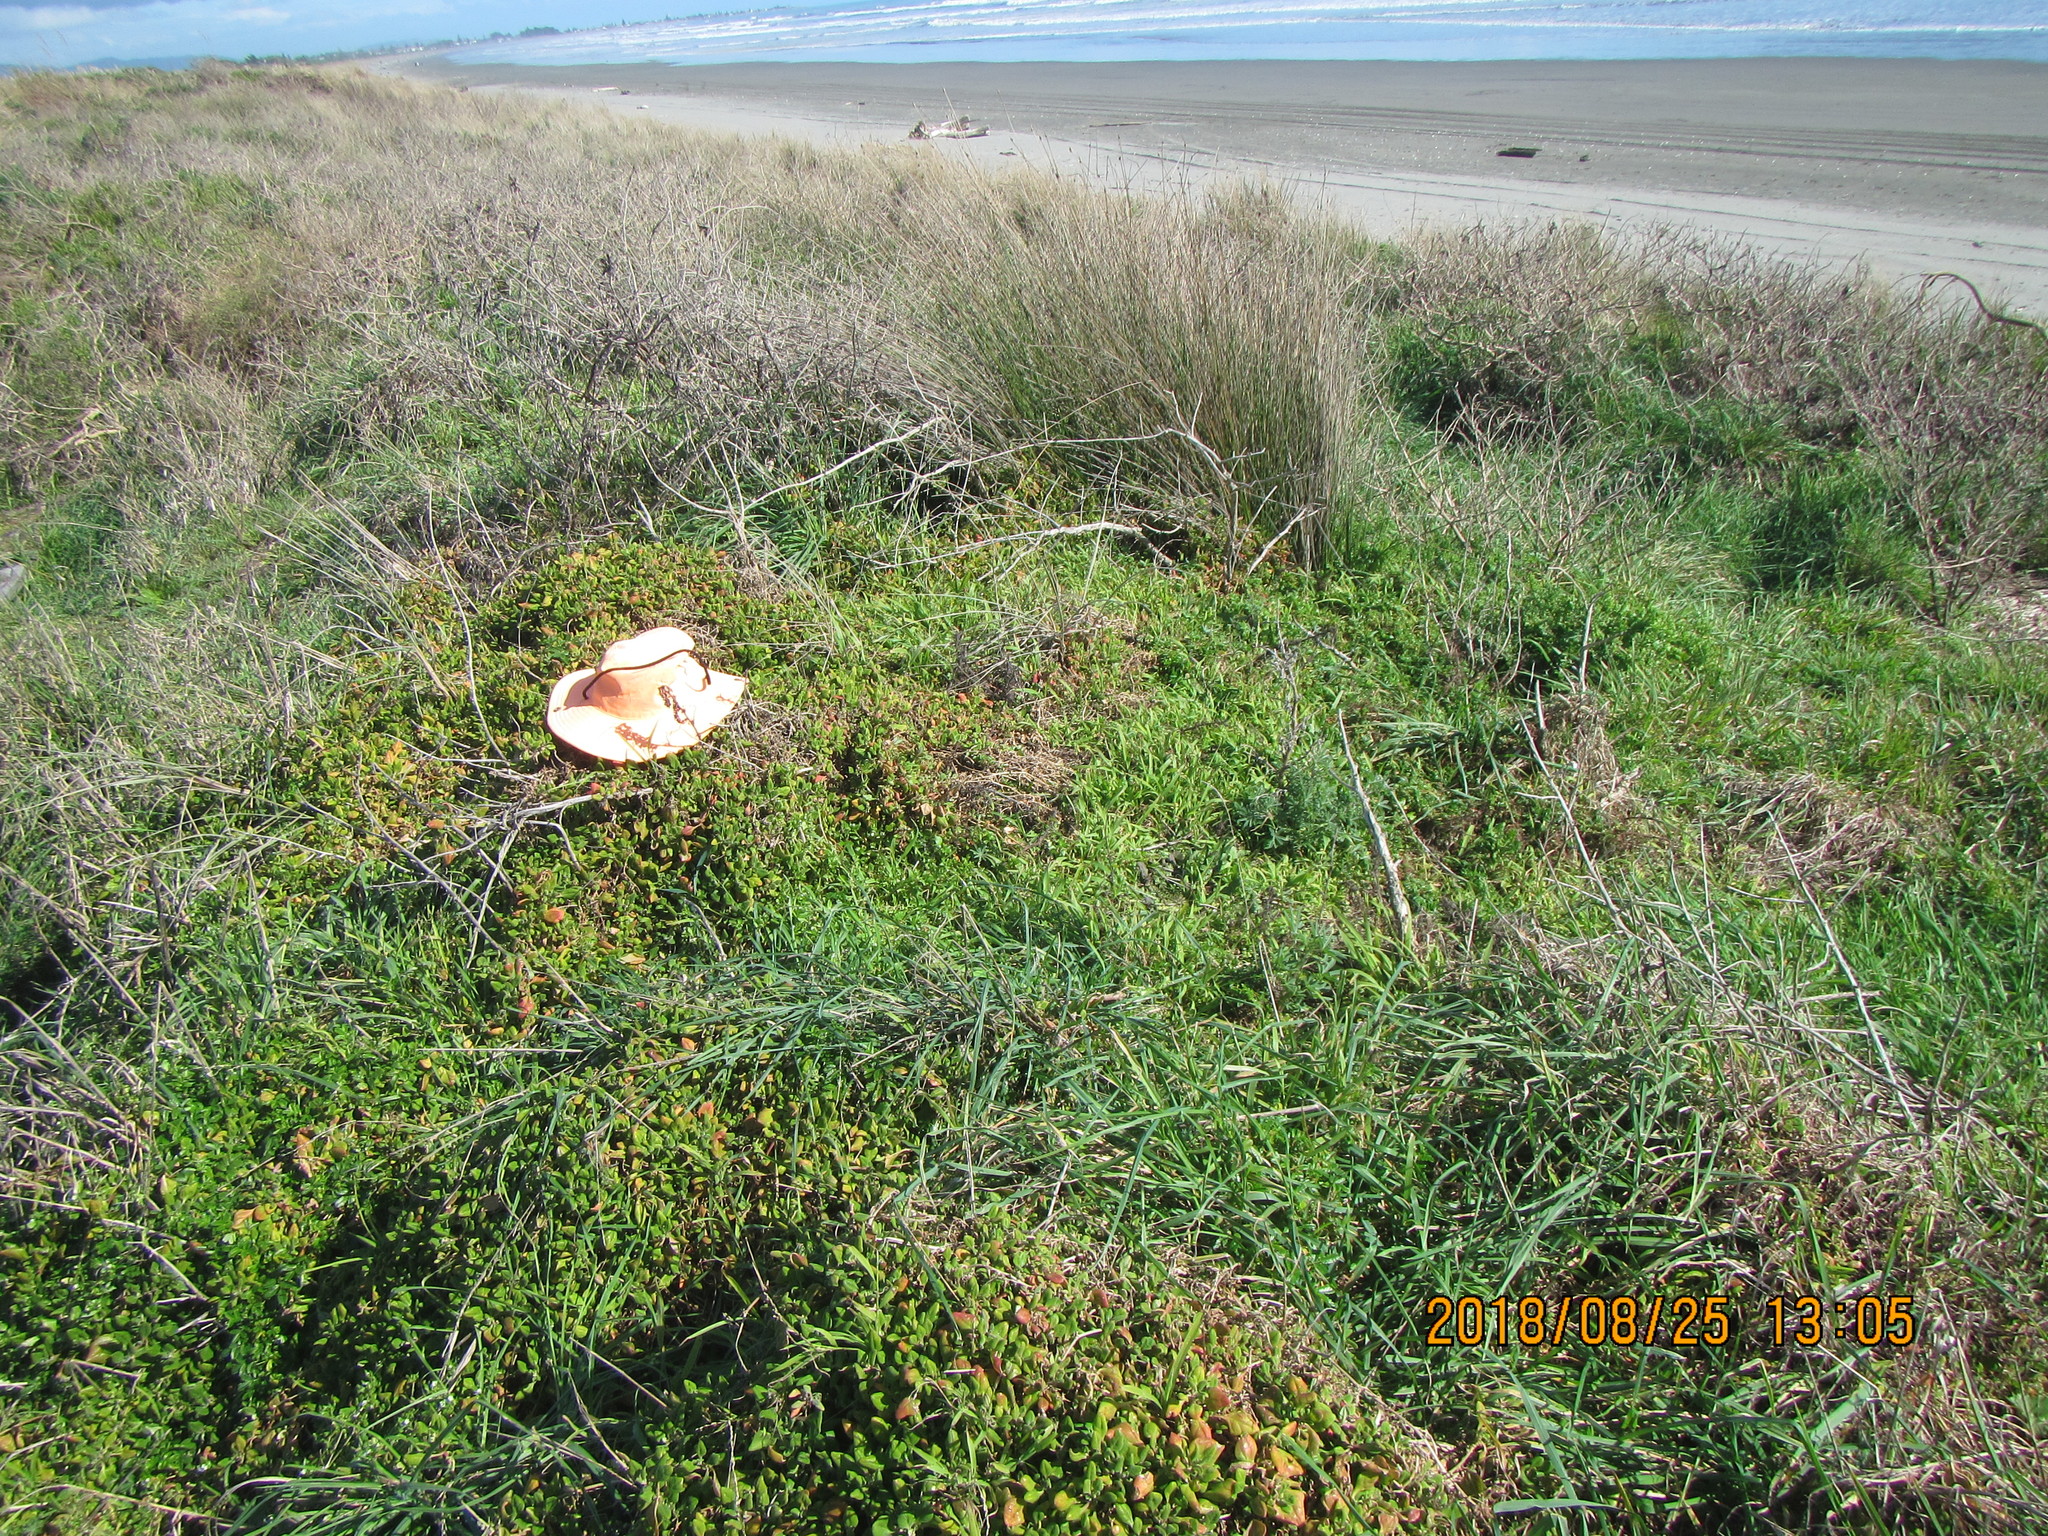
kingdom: Plantae
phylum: Tracheophyta
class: Magnoliopsida
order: Caryophyllales
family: Aizoaceae
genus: Tetragonia
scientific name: Tetragonia implexicoma
